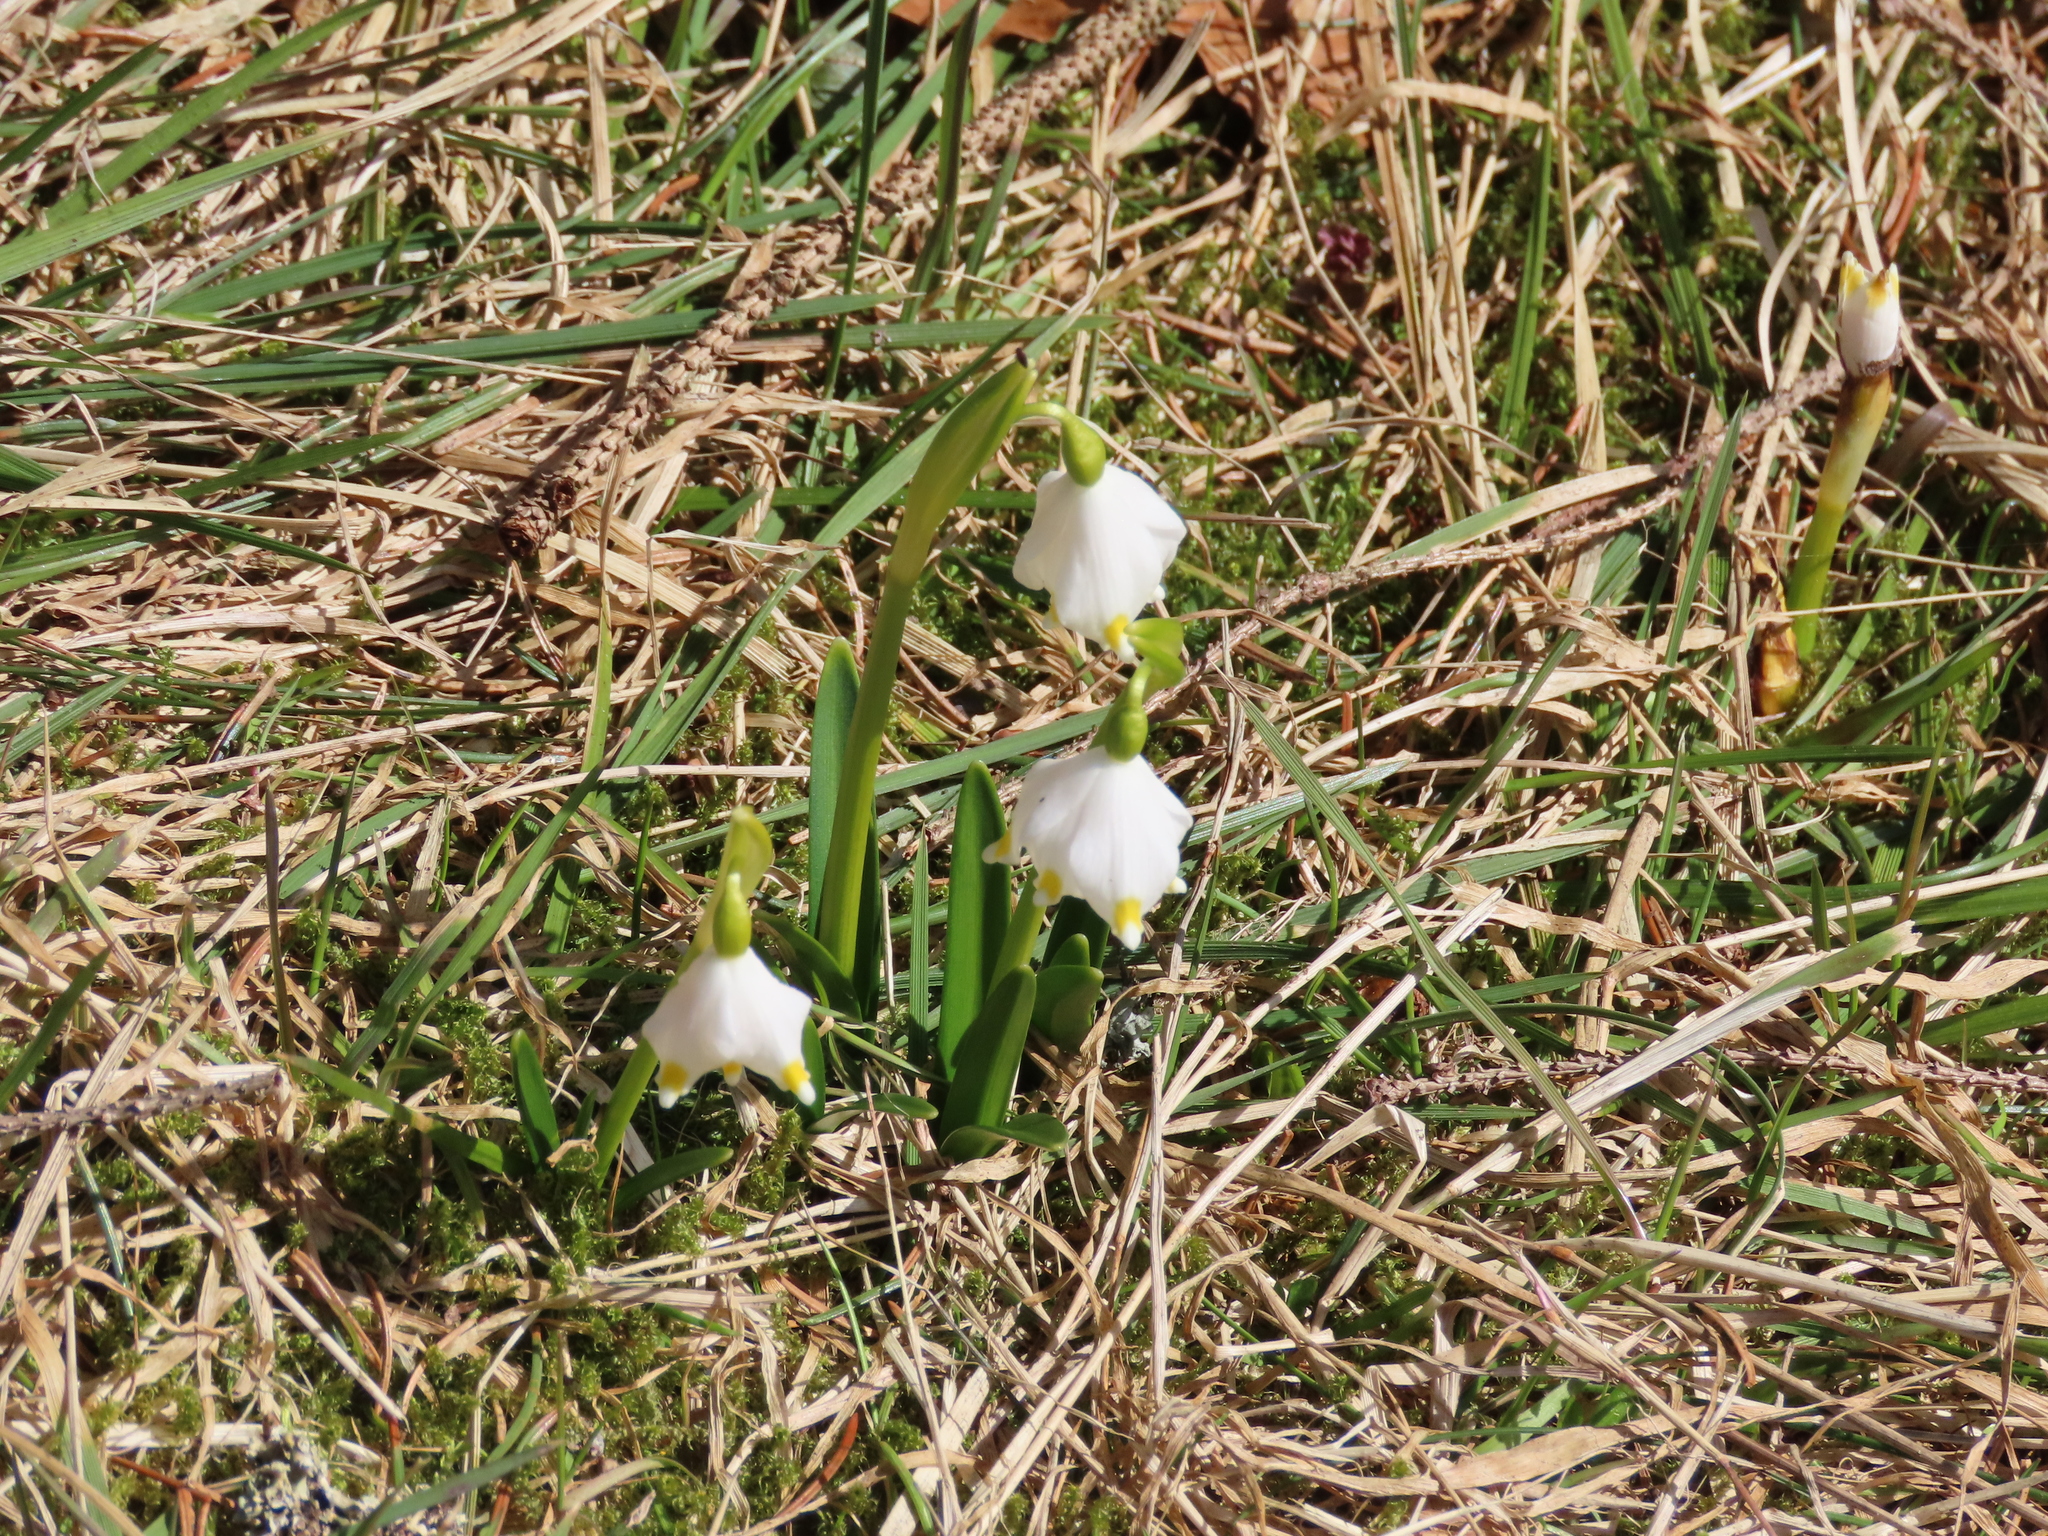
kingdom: Plantae
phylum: Tracheophyta
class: Liliopsida
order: Asparagales
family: Amaryllidaceae
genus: Leucojum
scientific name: Leucojum vernum
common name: Spring snowflake
